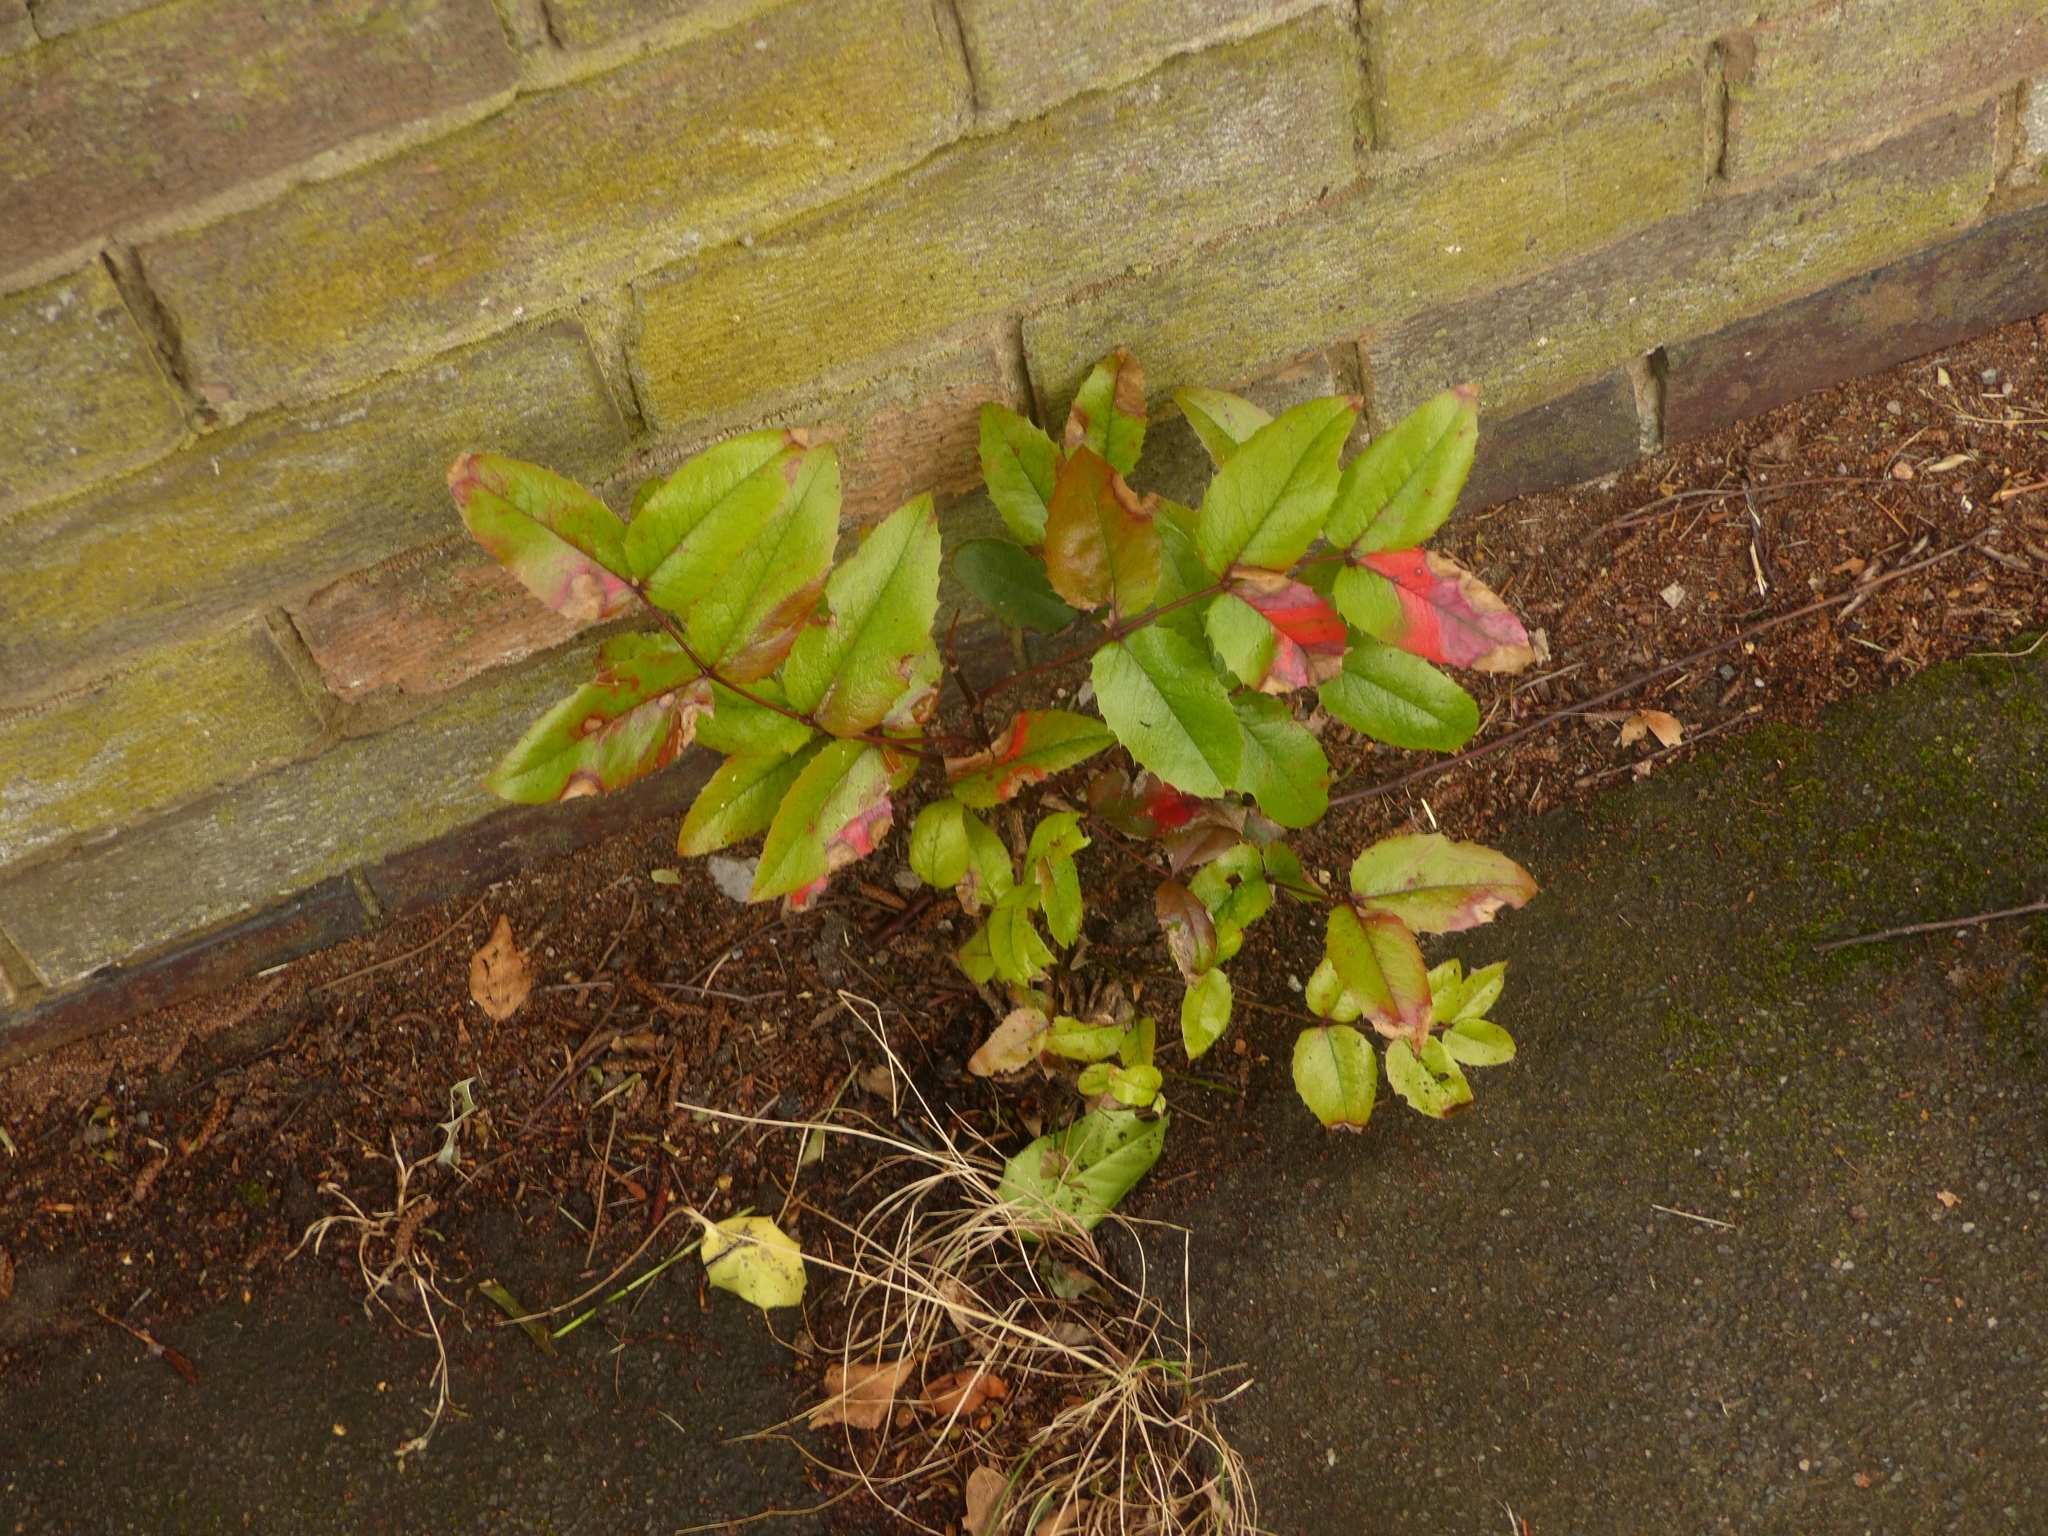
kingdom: Plantae
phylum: Tracheophyta
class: Magnoliopsida
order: Ranunculales
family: Berberidaceae
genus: Mahonia
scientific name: Mahonia aquifolium
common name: Oregon-grape
